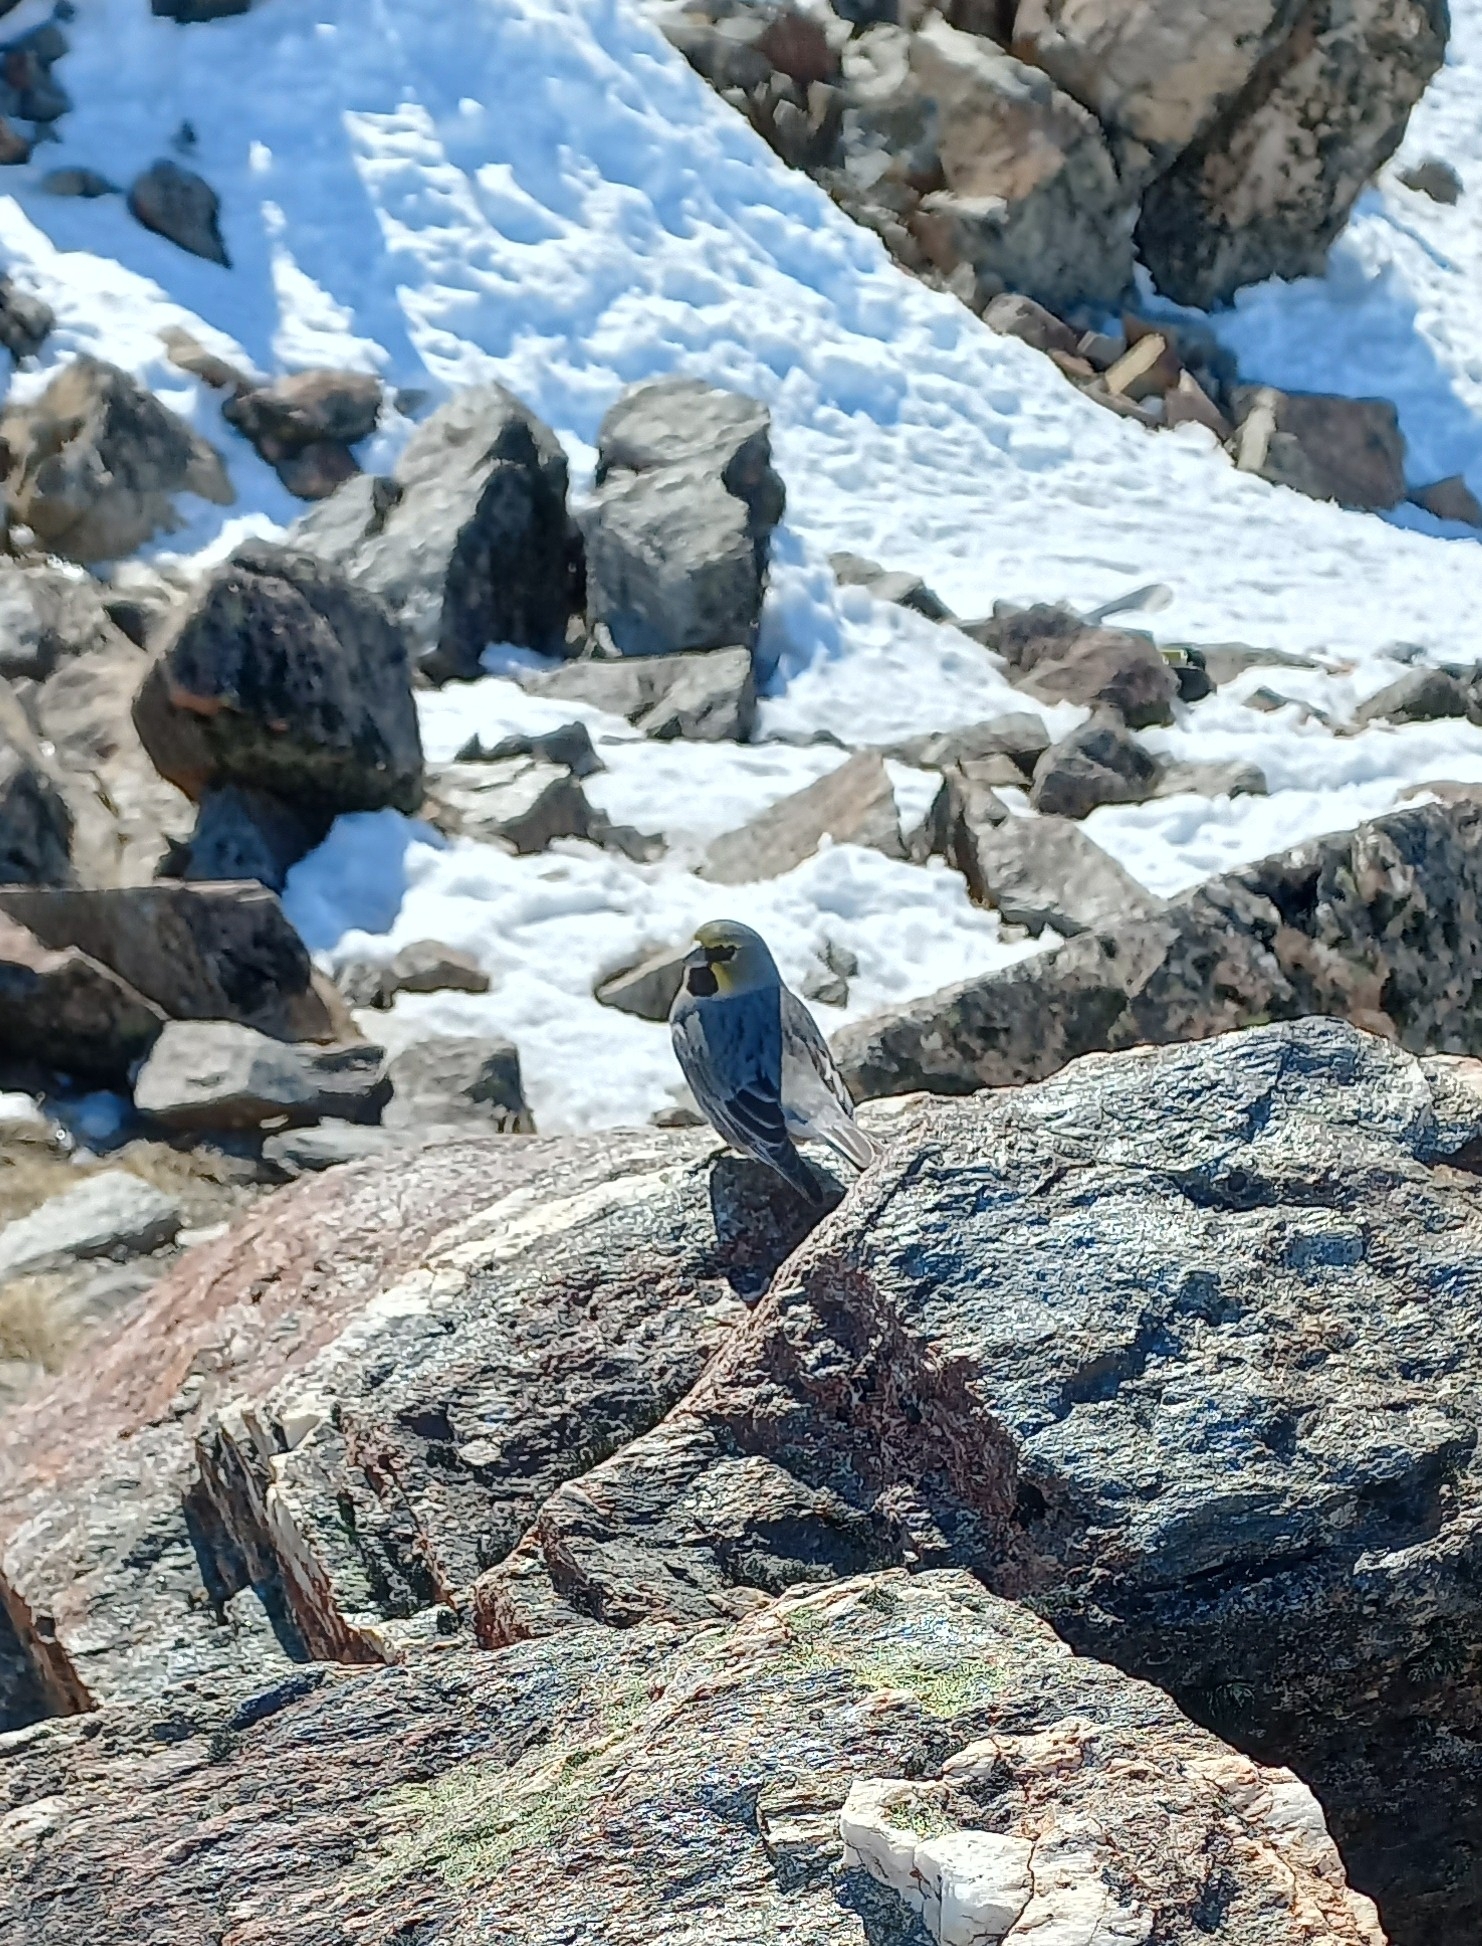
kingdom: Animalia
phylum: Chordata
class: Aves
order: Passeriformes
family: Thraupidae
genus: Melanodera
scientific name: Melanodera xanthogramma
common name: Yellow-bridled finch
